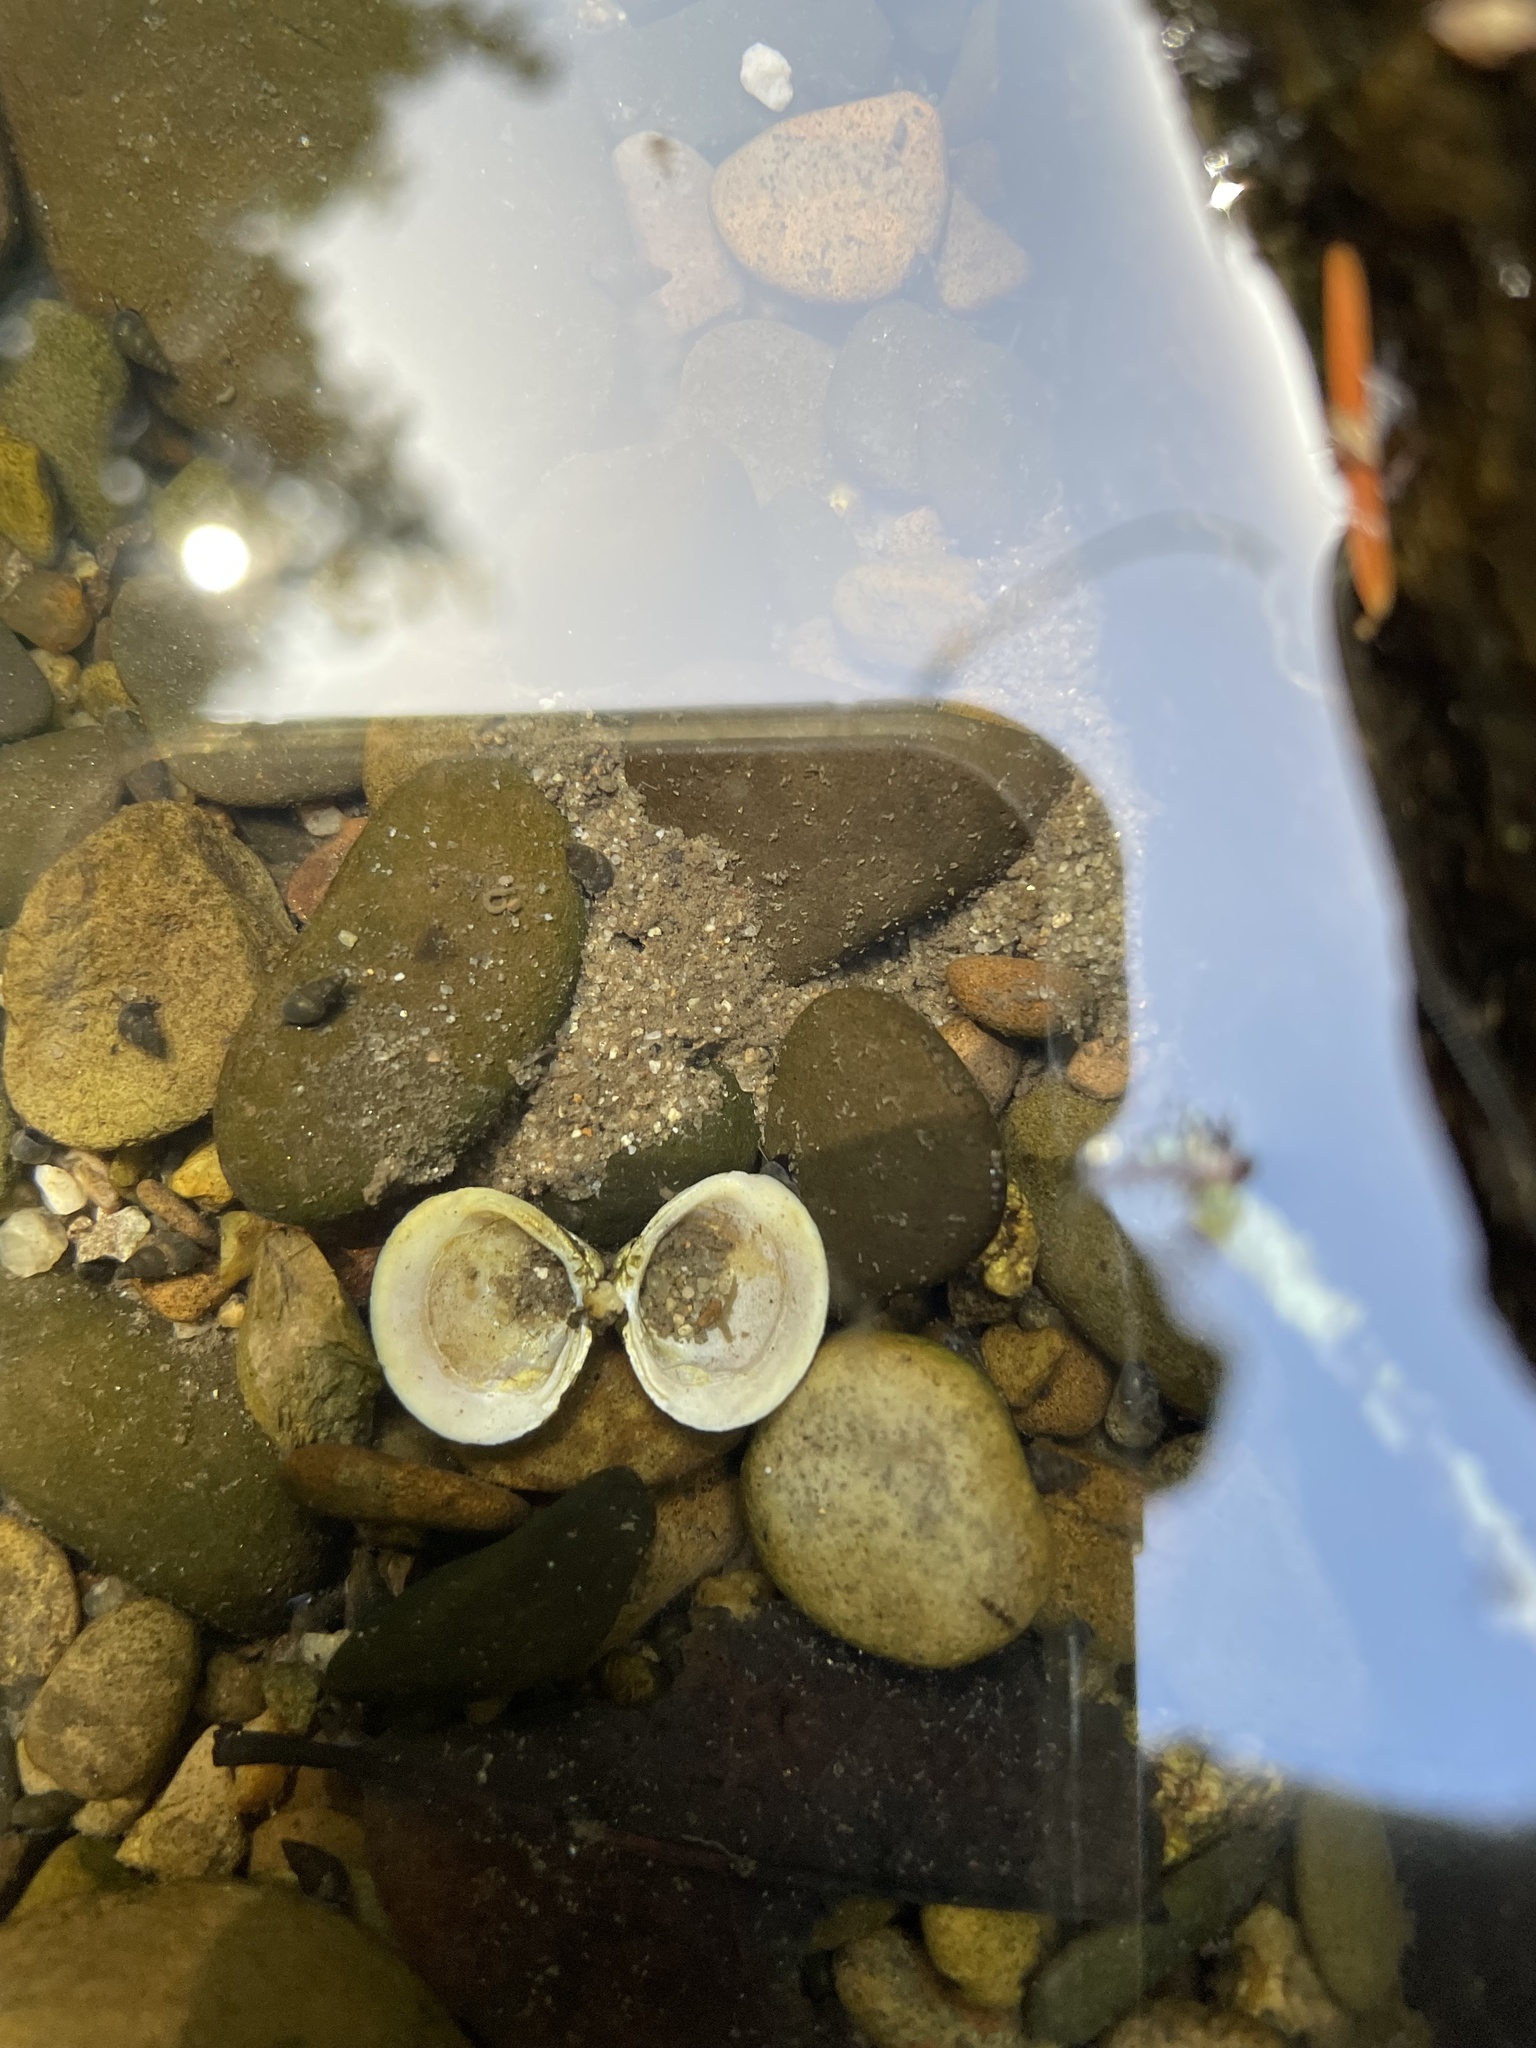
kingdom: Animalia
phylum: Mollusca
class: Bivalvia
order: Venerida
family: Cyrenidae
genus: Corbicula
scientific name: Corbicula fluminea
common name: Asian clam
